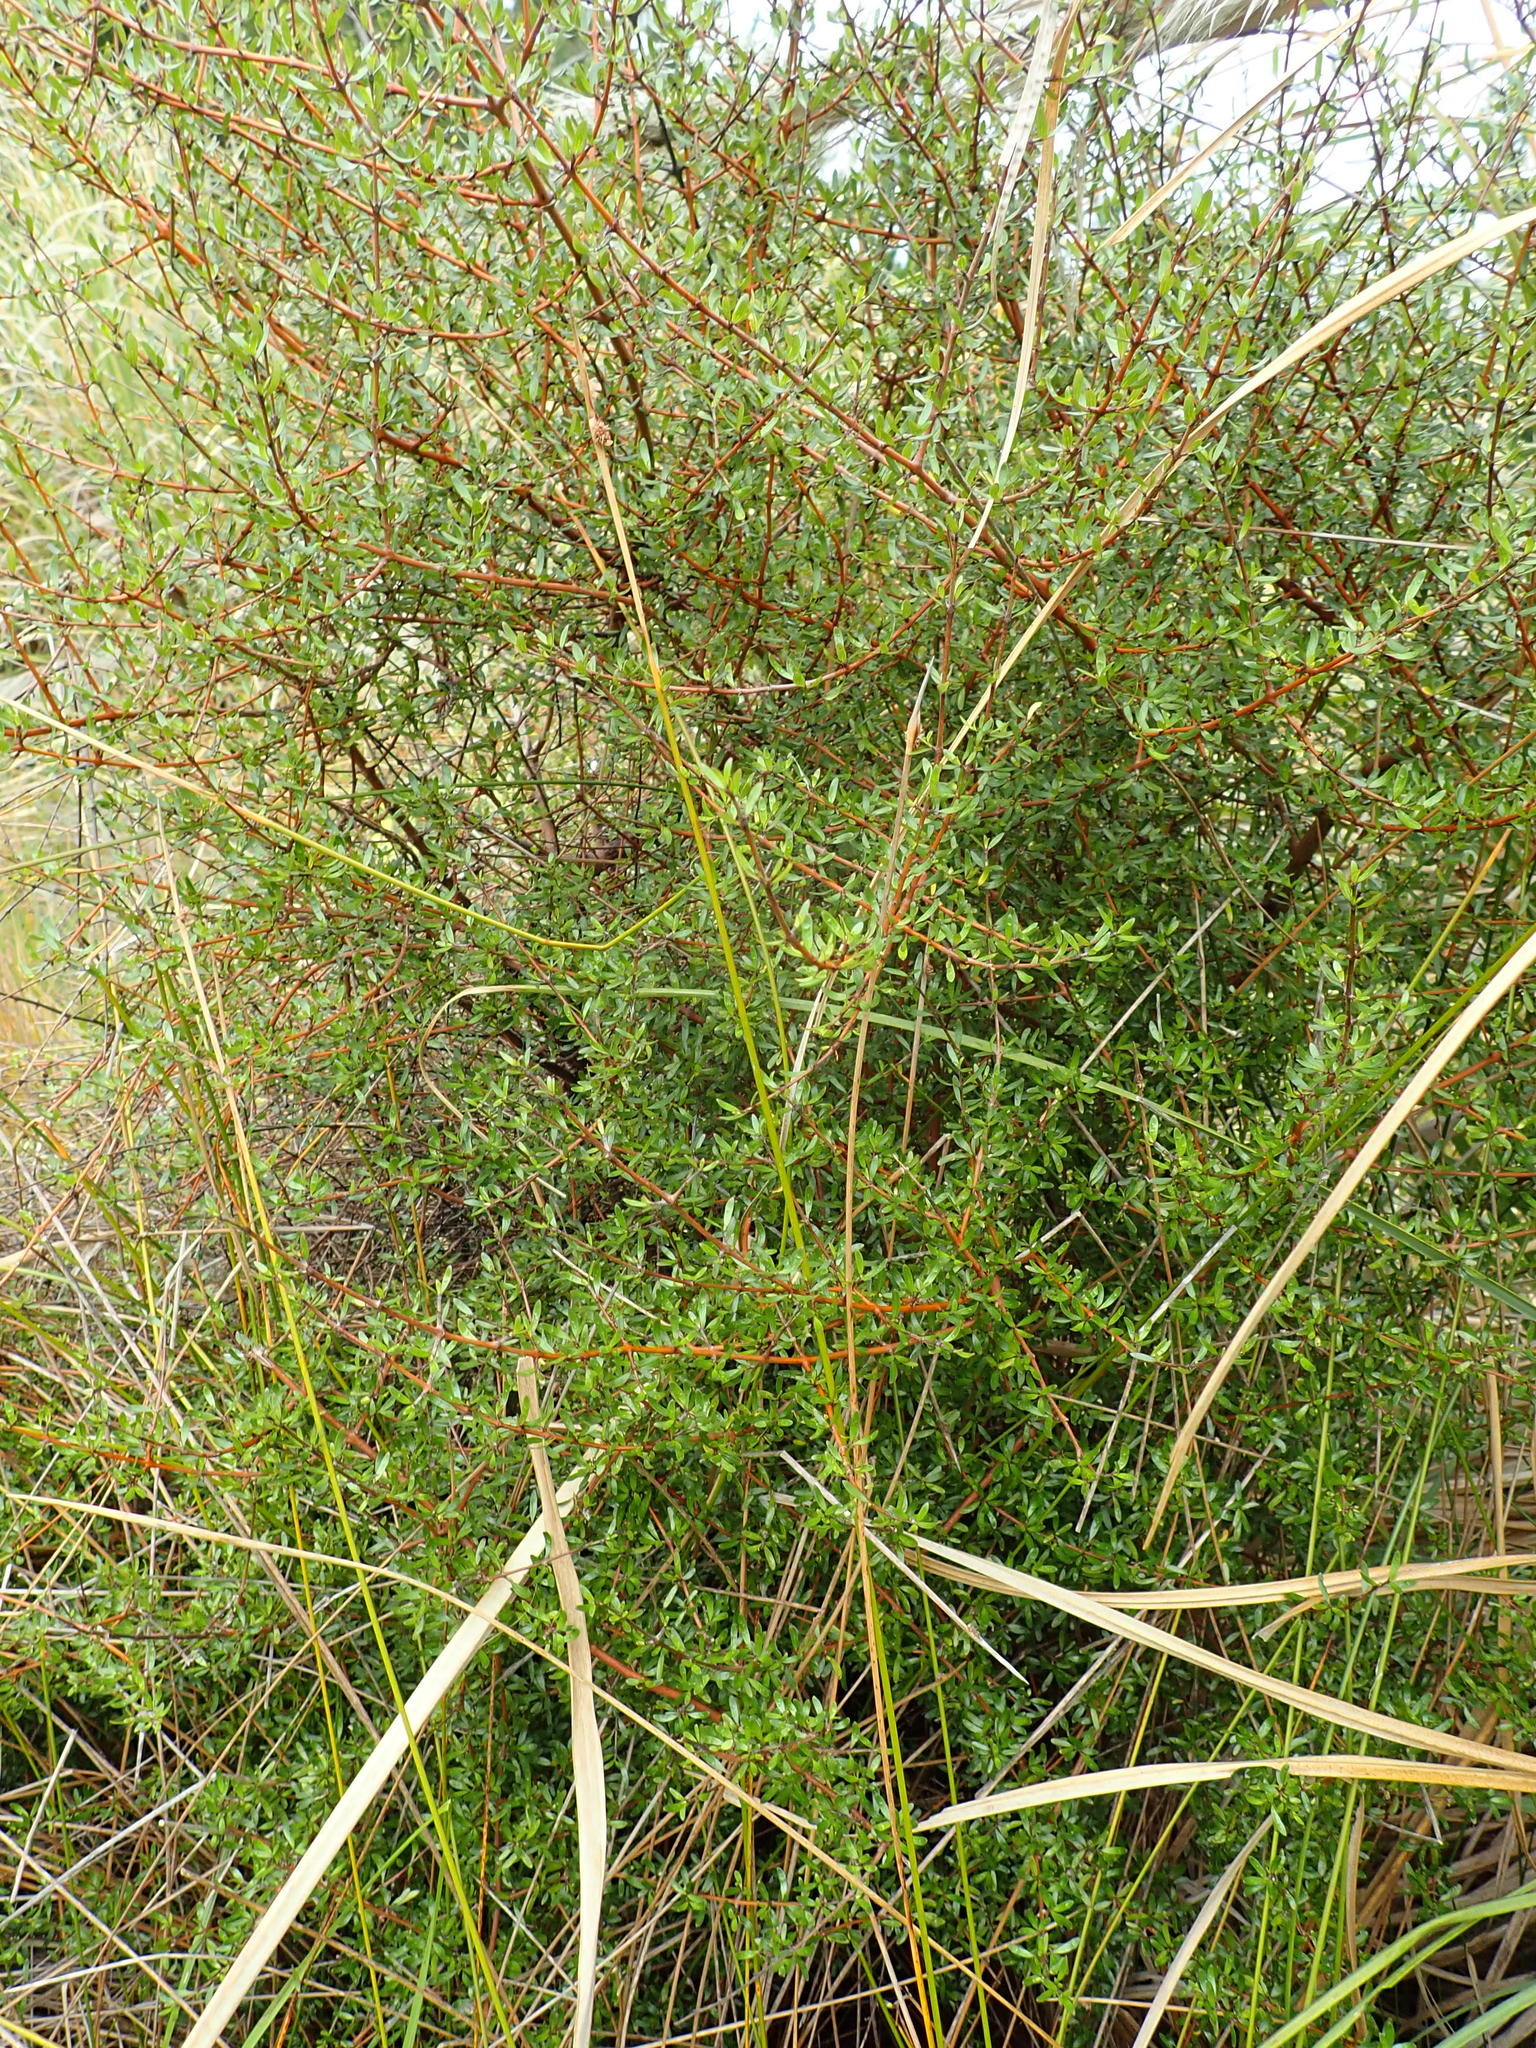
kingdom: Plantae
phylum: Tracheophyta
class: Magnoliopsida
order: Gentianales
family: Rubiaceae
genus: Coprosma
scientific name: Coprosma propinqua
